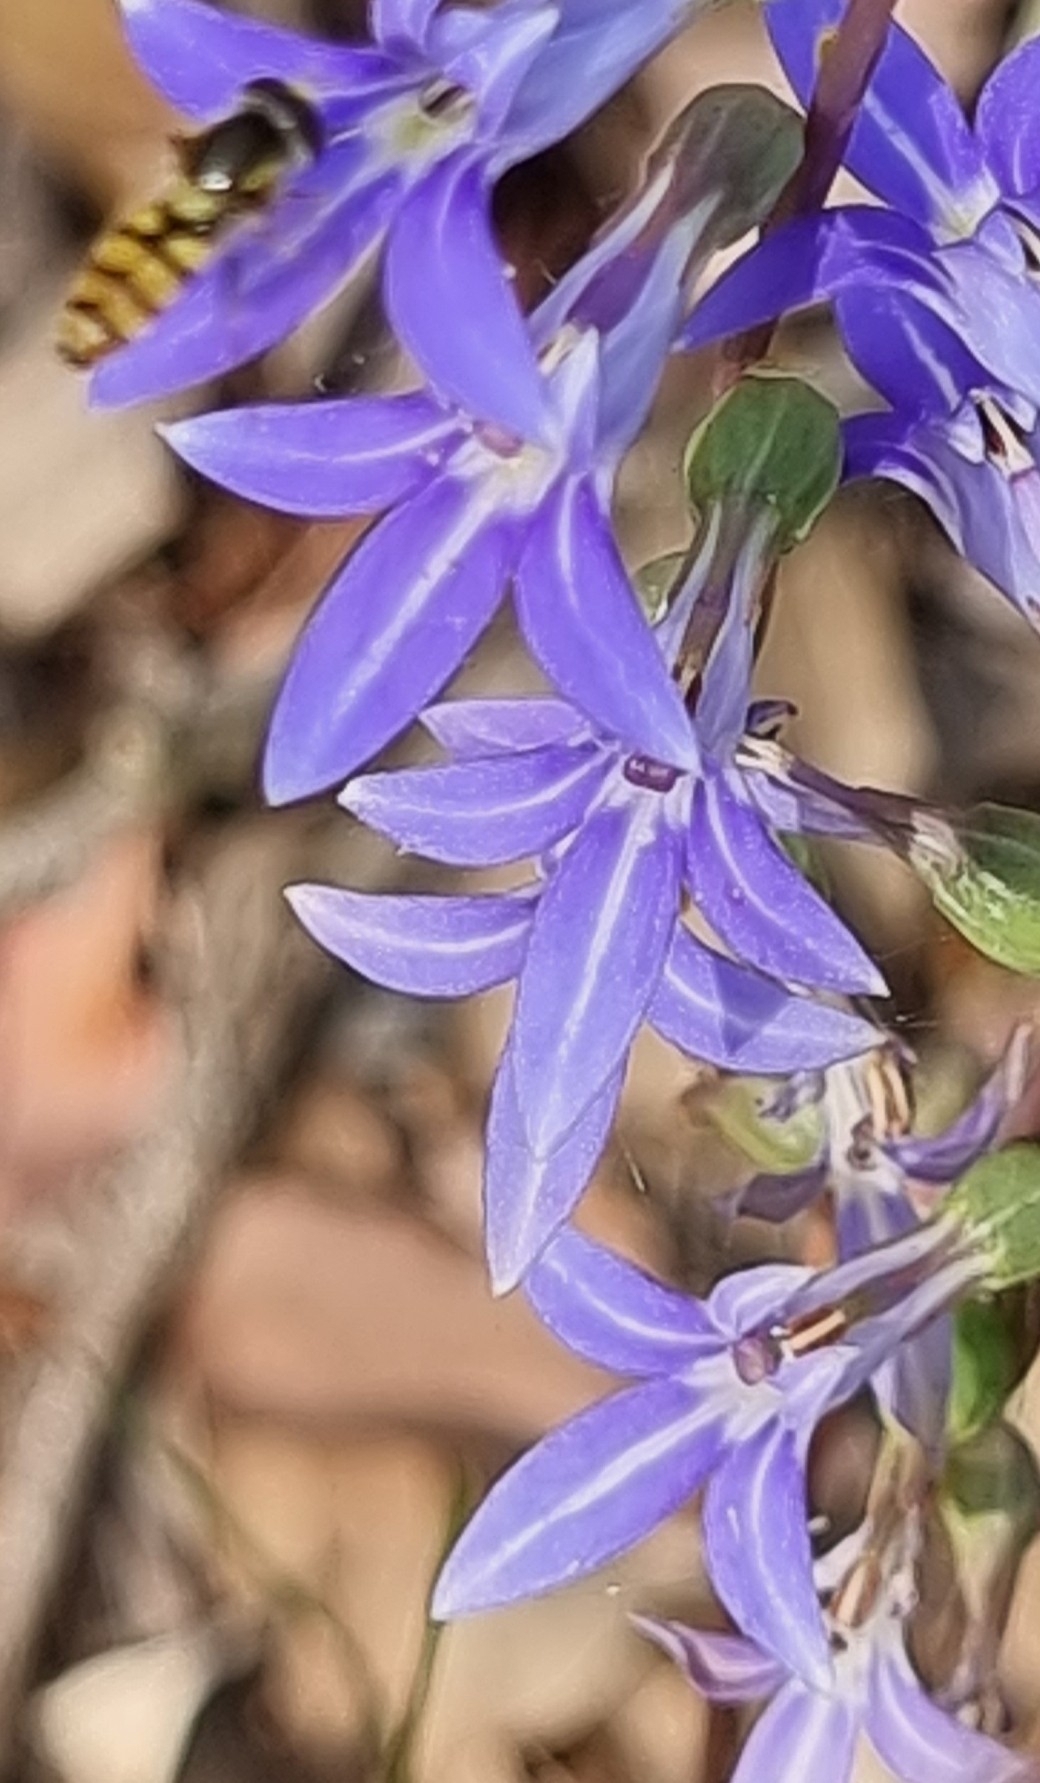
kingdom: Plantae
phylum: Tracheophyta
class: Magnoliopsida
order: Asterales
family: Campanulaceae
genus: Lobelia
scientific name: Lobelia gibbosa
